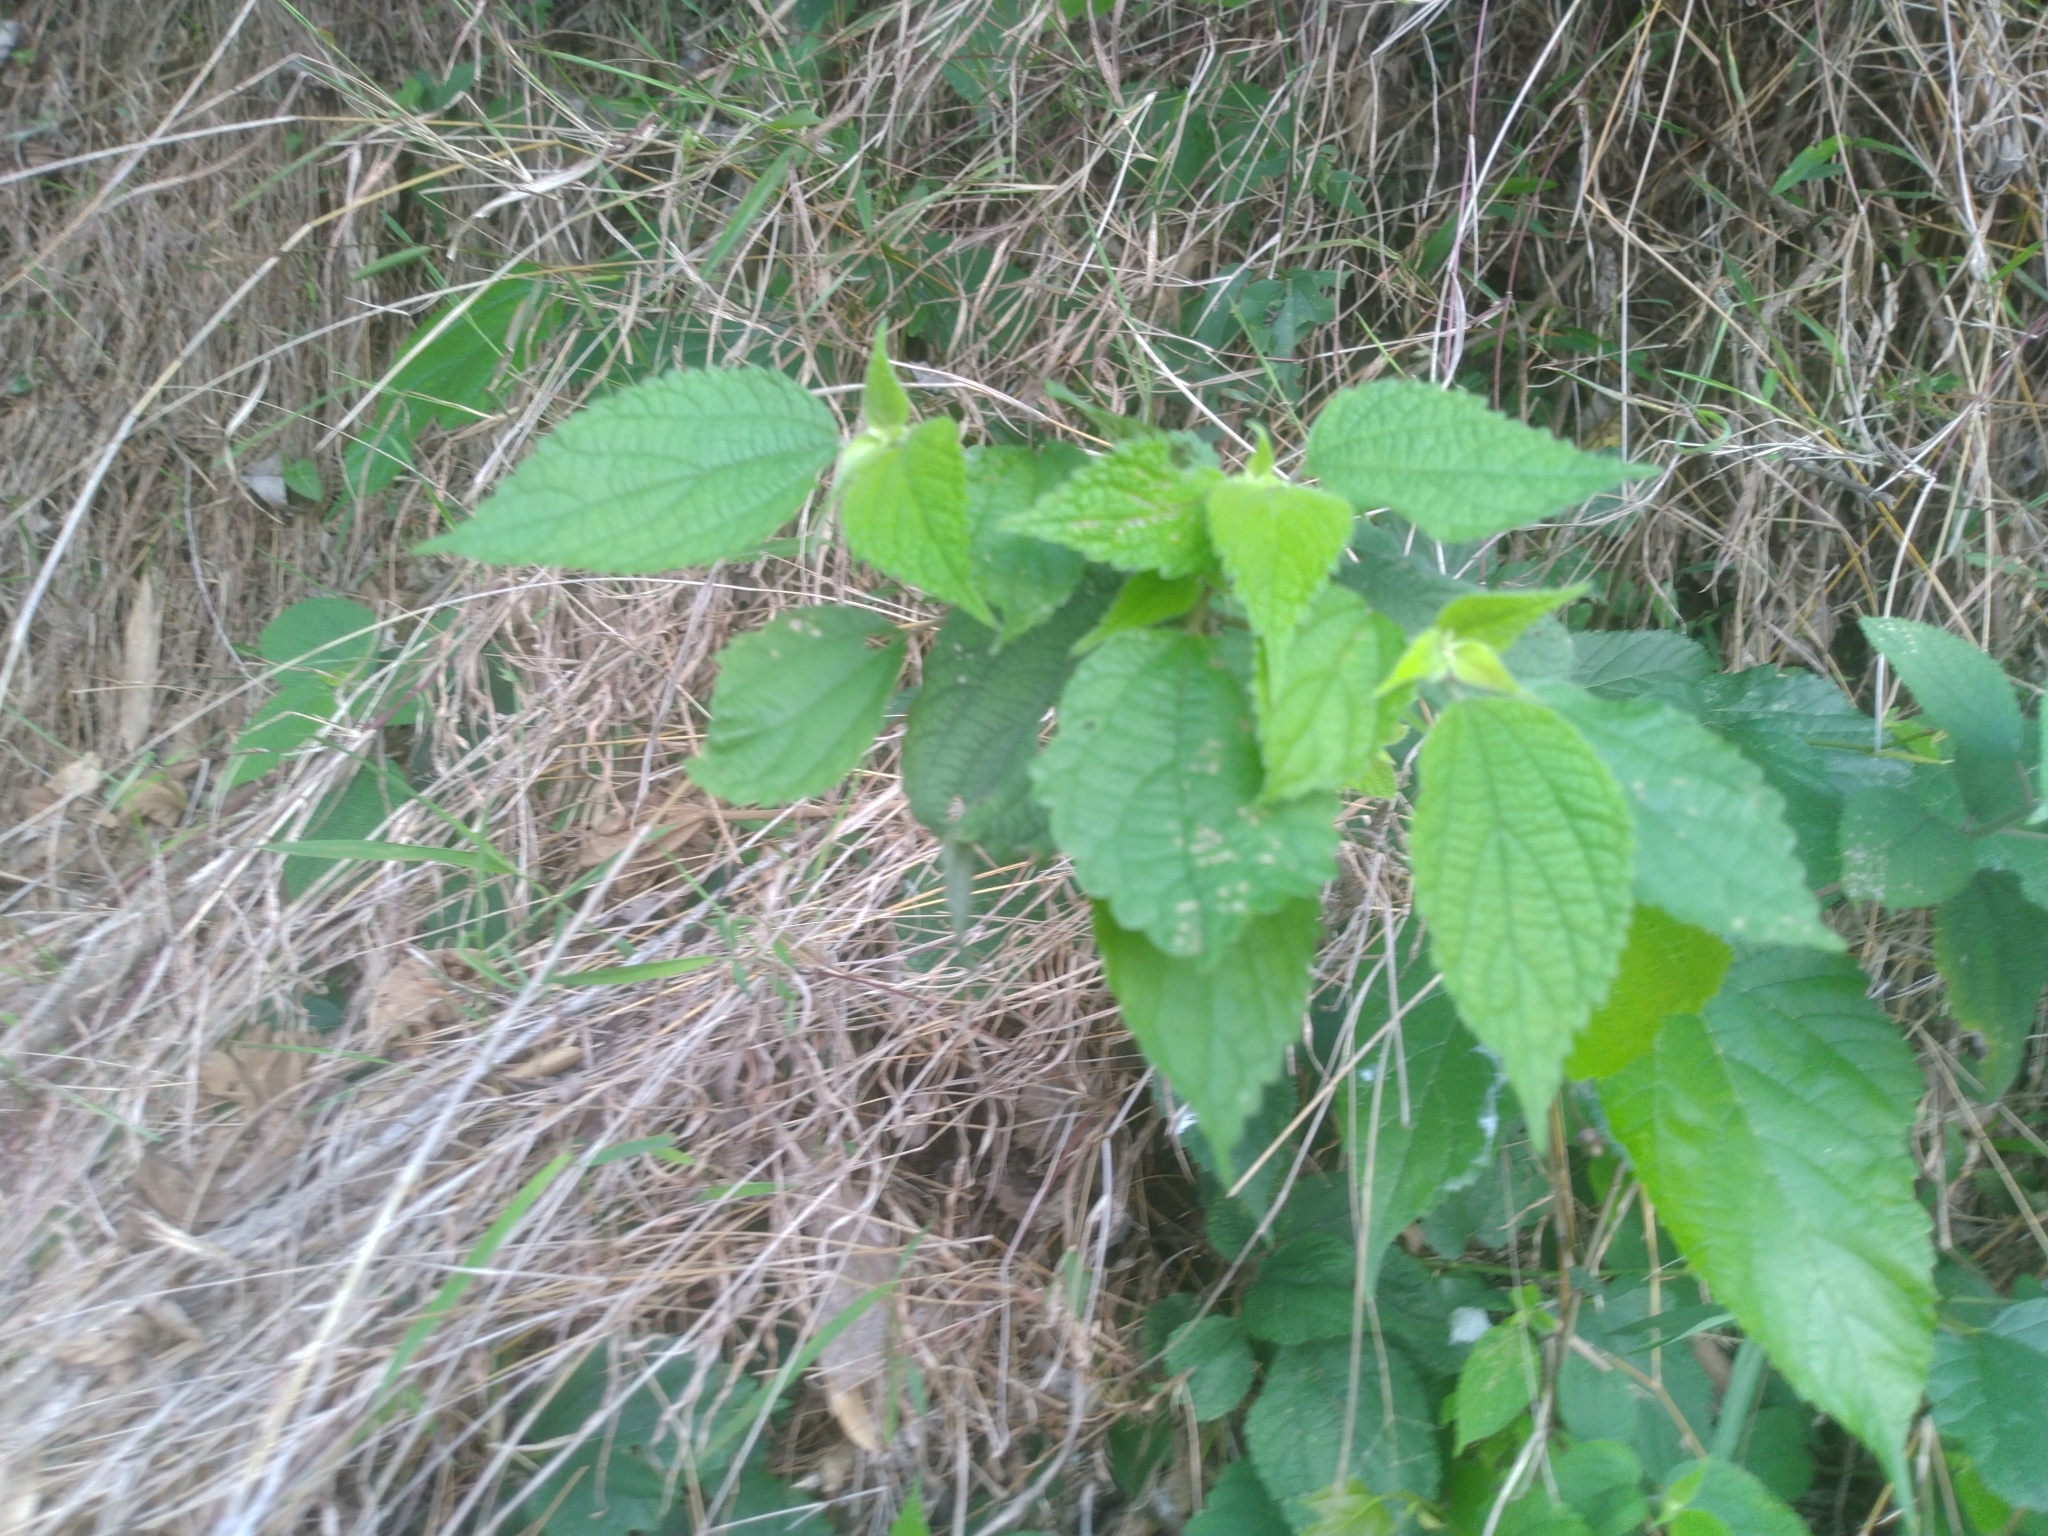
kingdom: Plantae
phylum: Tracheophyta
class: Magnoliopsida
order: Rosales
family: Urticaceae
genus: Boehmeria
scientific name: Boehmeria nivea
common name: Ramie chinese grass
